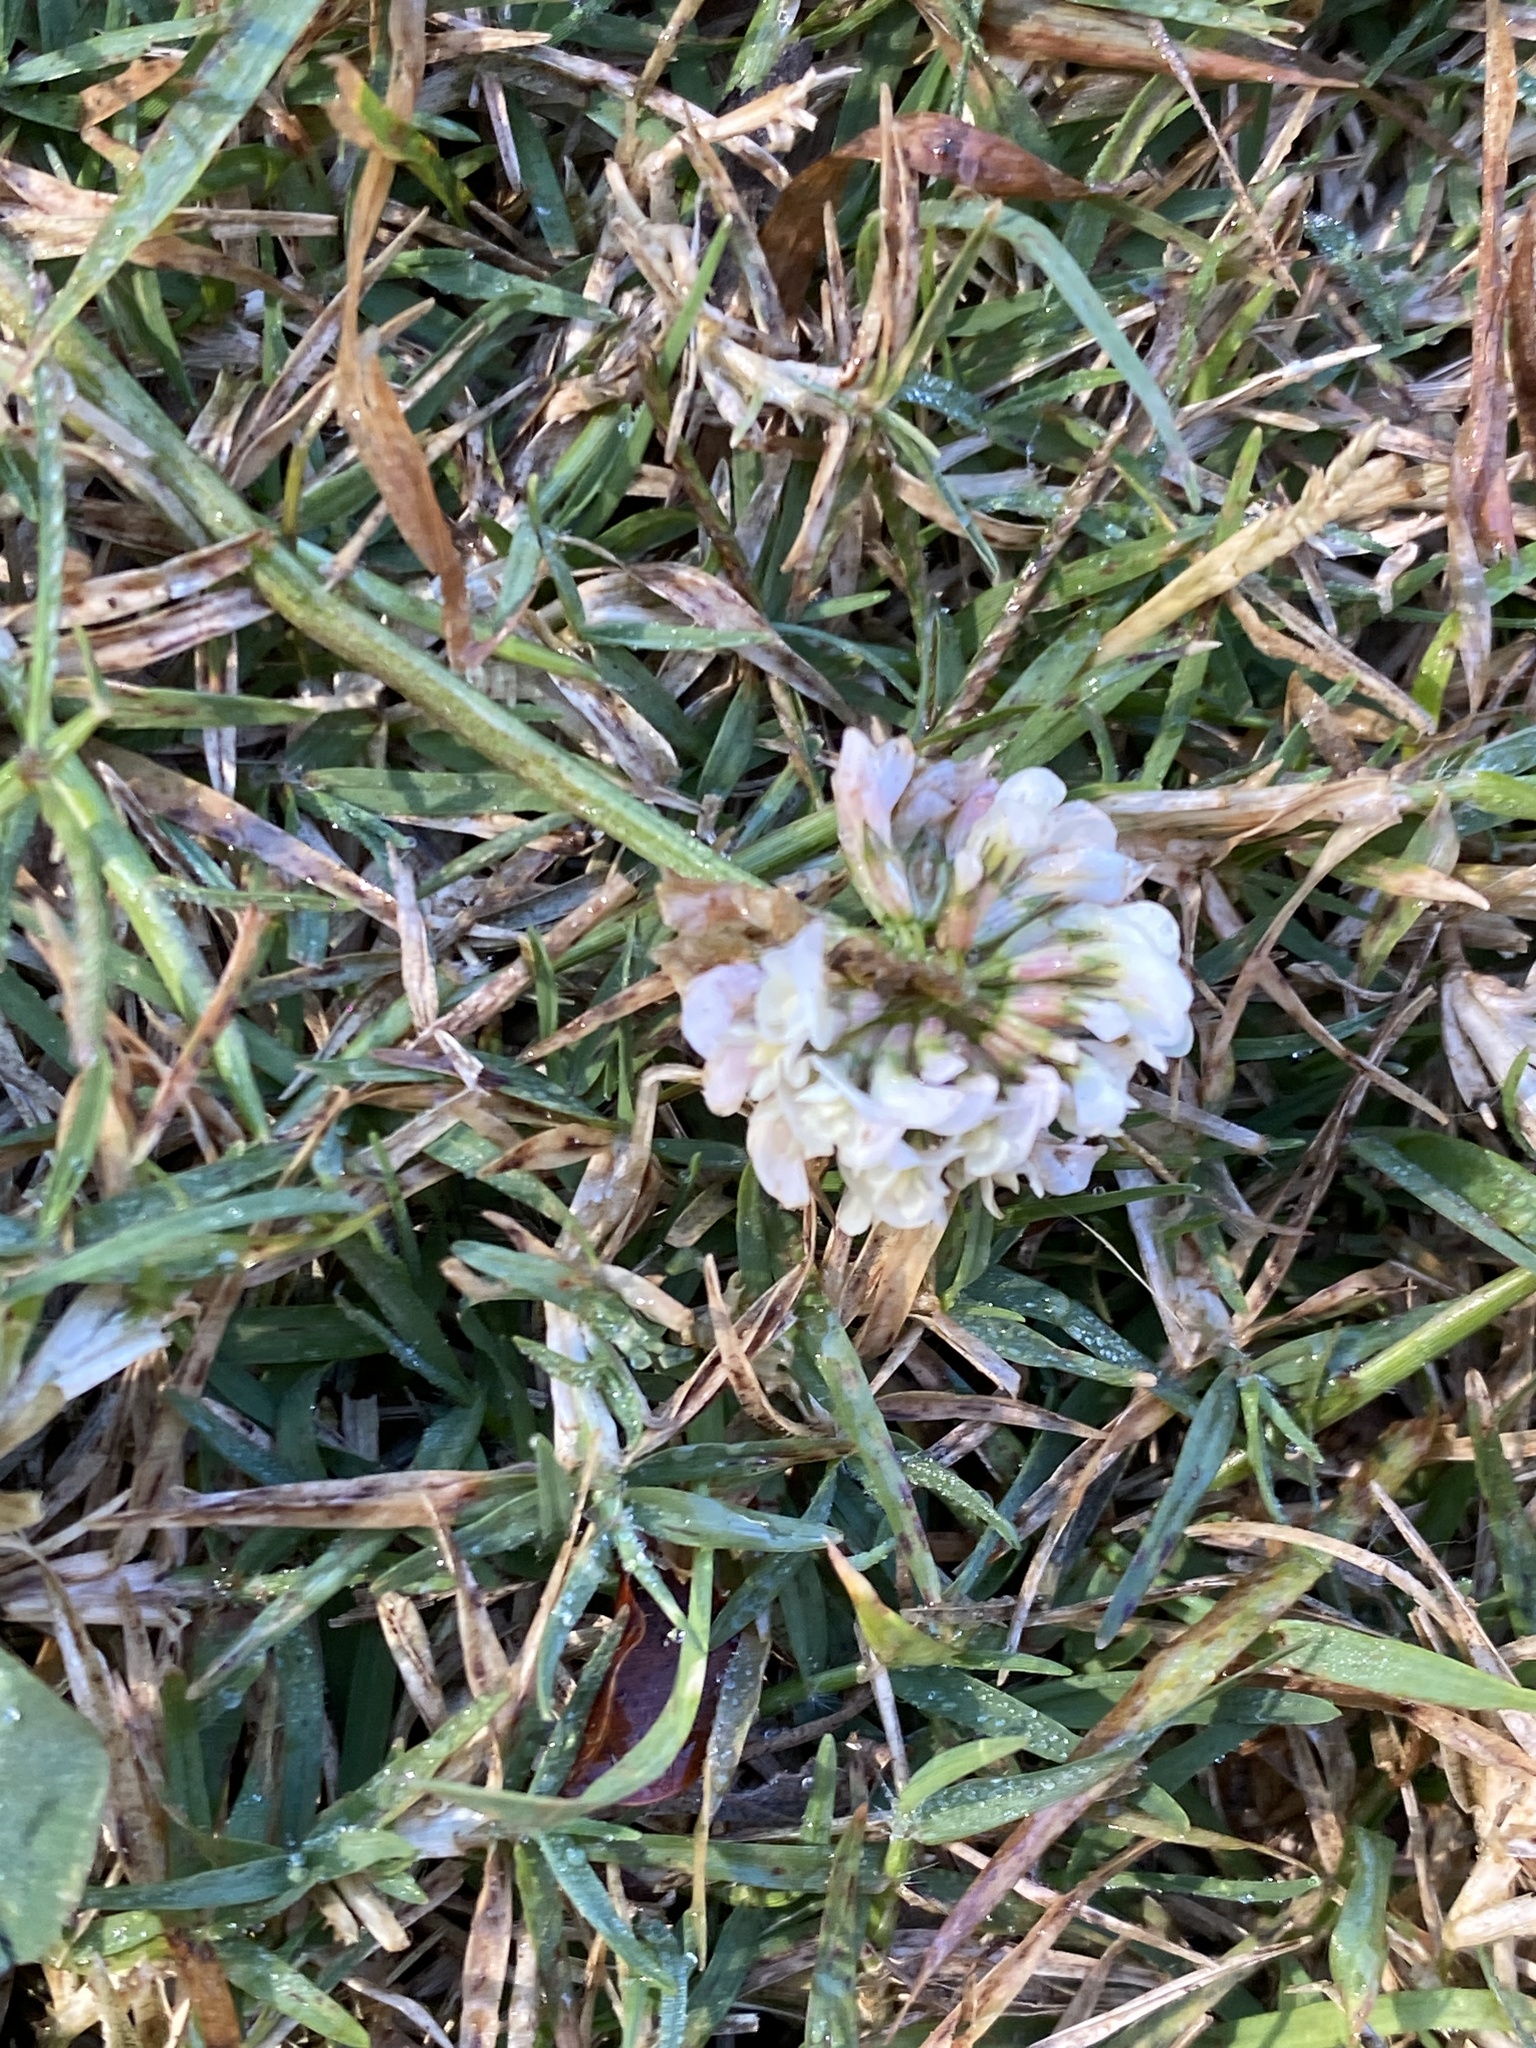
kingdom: Plantae
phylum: Tracheophyta
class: Magnoliopsida
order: Fabales
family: Fabaceae
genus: Trifolium
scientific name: Trifolium repens
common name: White clover
